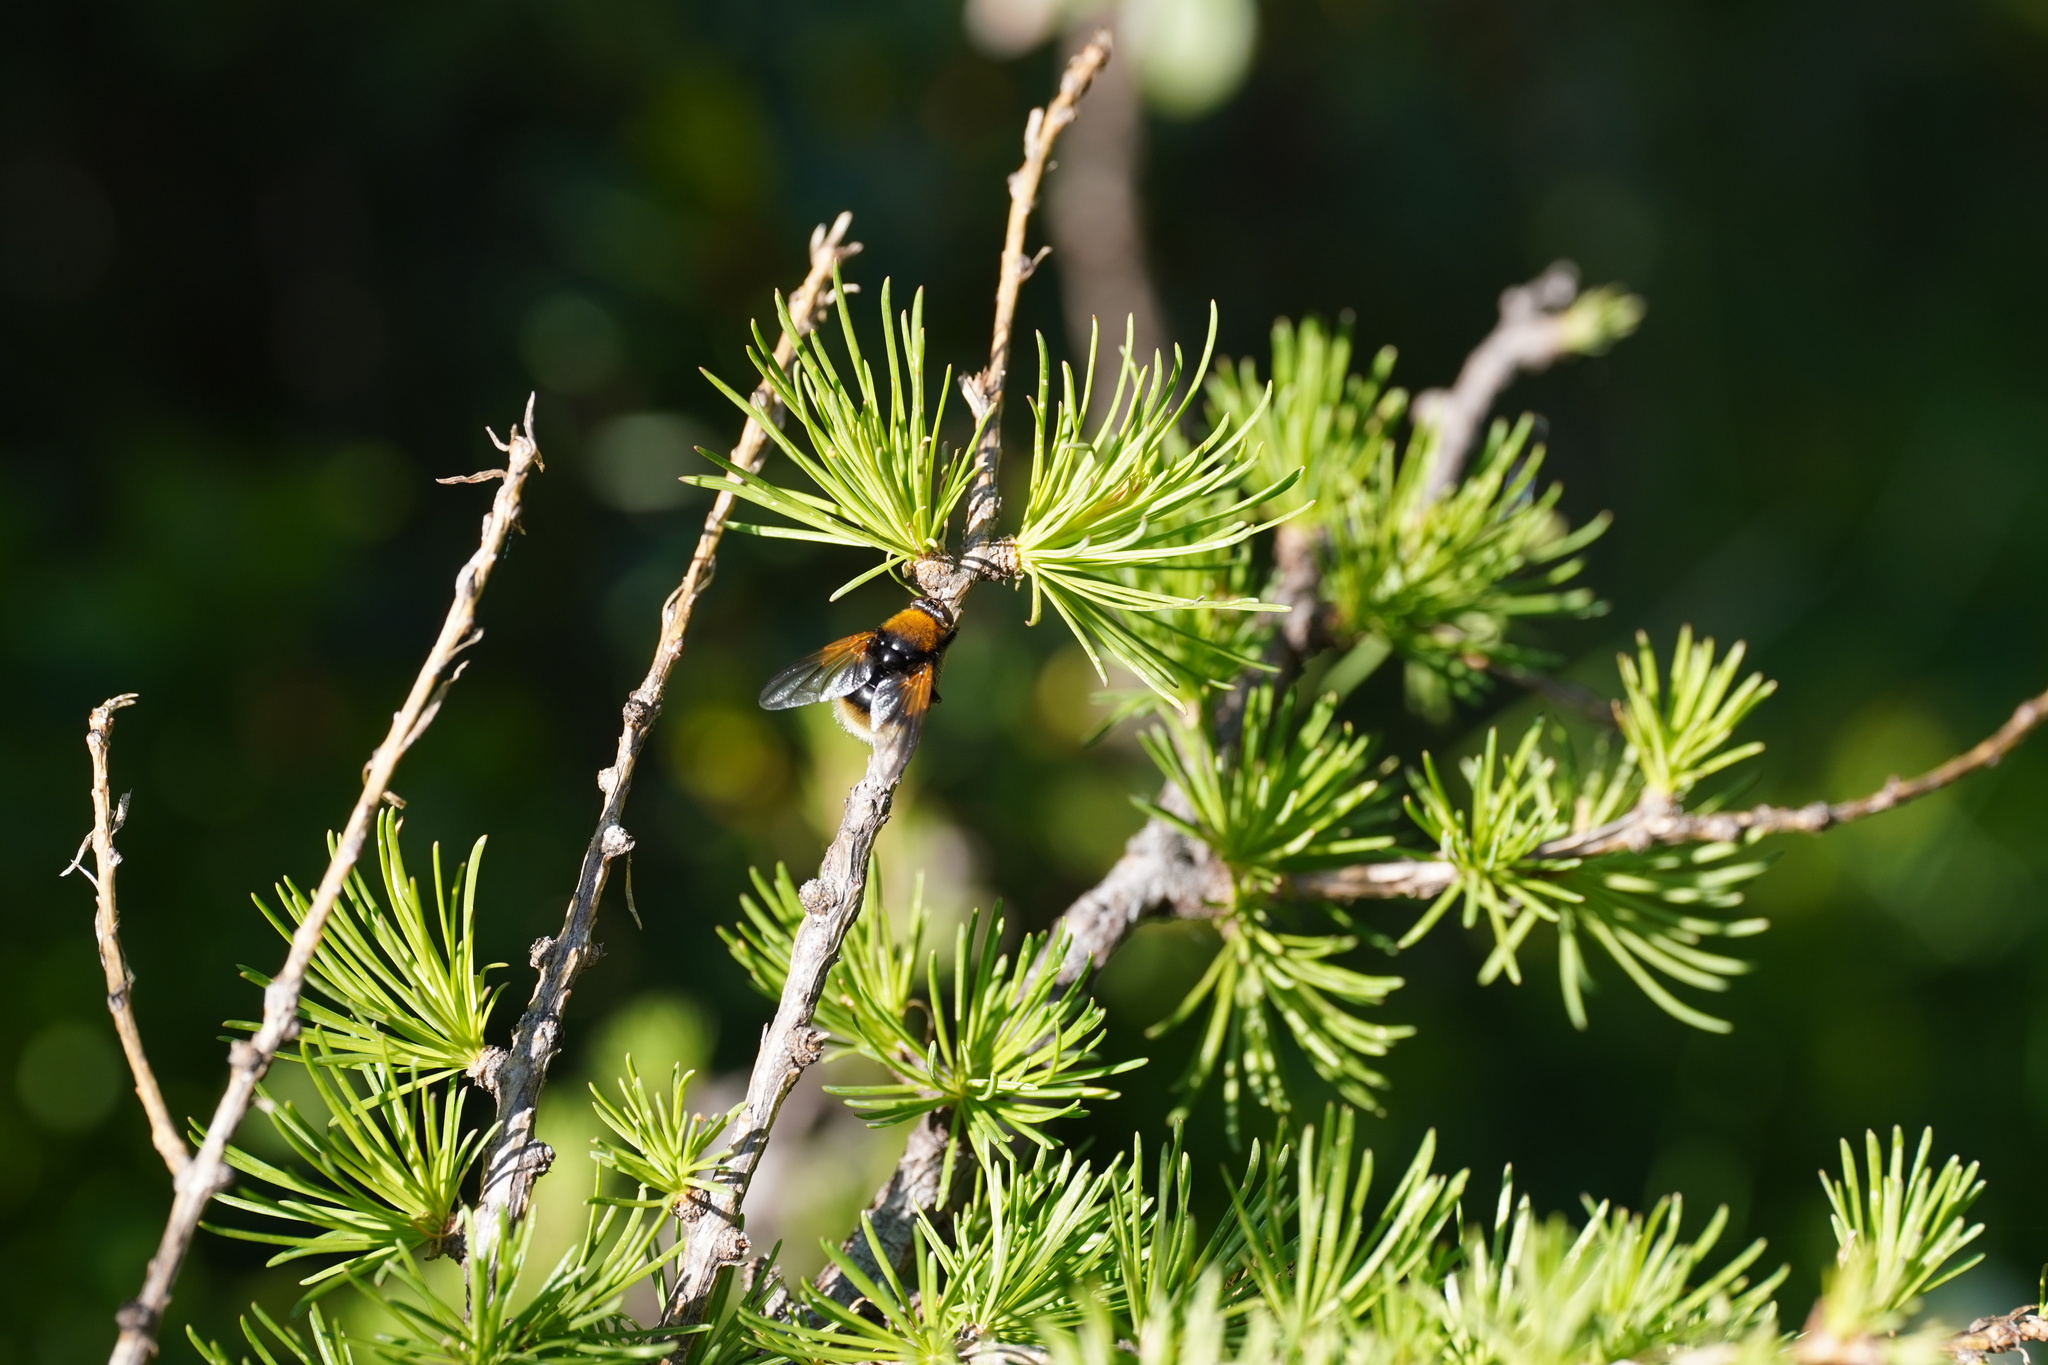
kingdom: Animalia
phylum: Arthropoda
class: Insecta
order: Diptera
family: Muscidae
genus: Mesembrina
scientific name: Mesembrina mystacea
